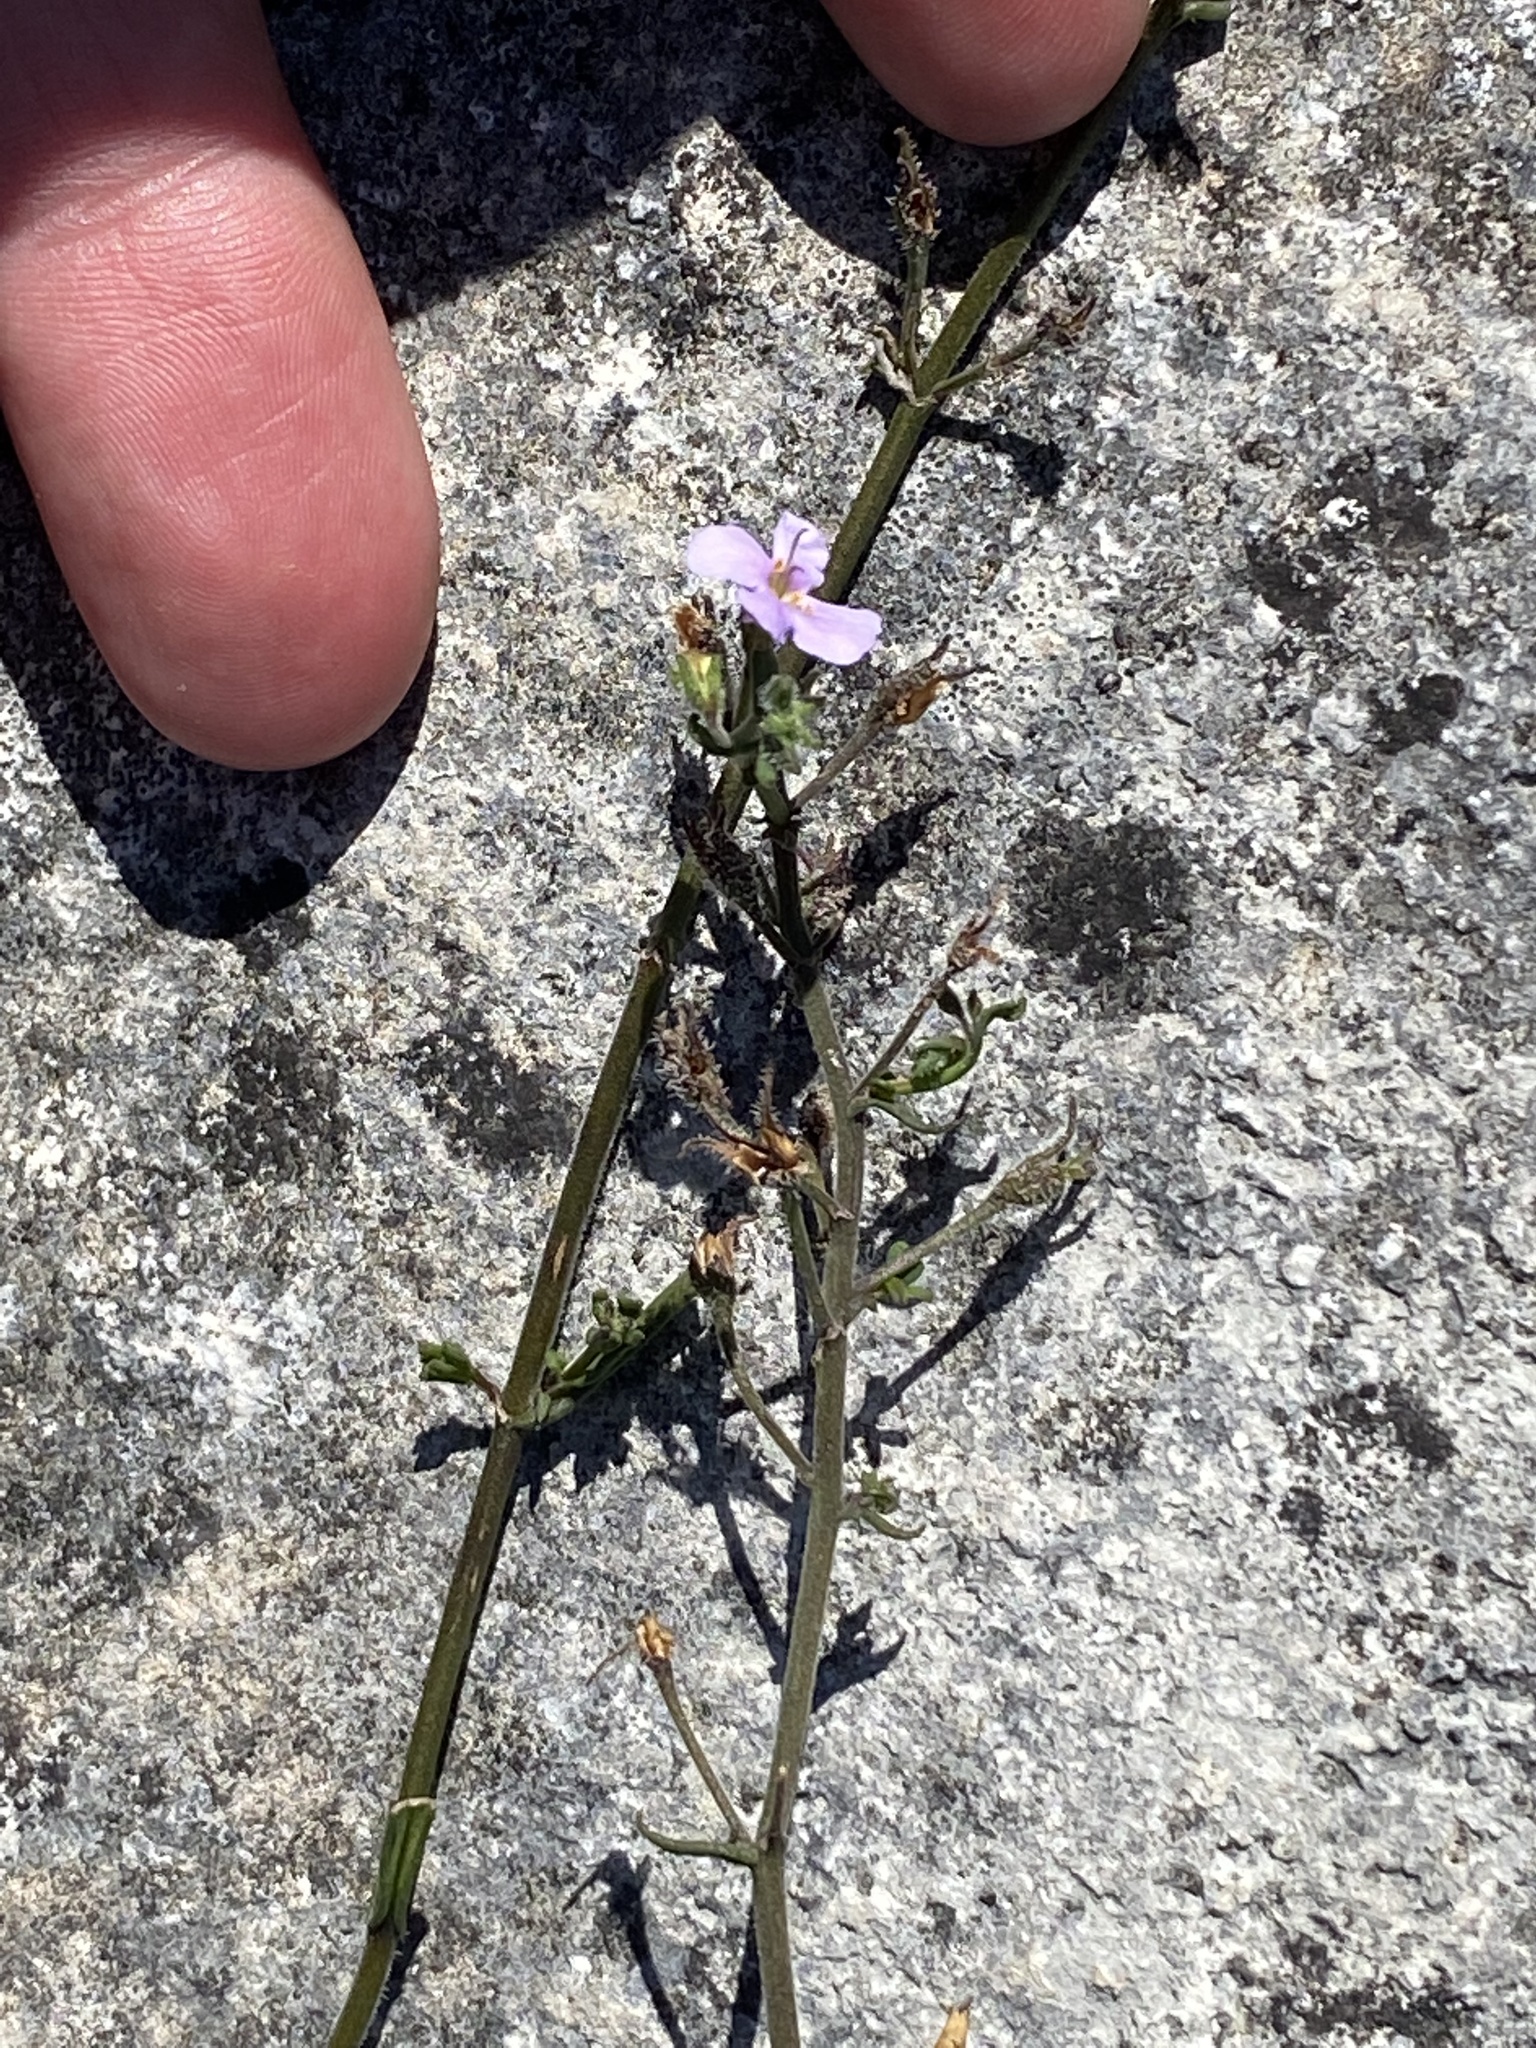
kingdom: Plantae
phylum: Tracheophyta
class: Magnoliopsida
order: Lamiales
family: Scrophulariaceae
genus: Chaenostoma
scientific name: Chaenostoma placidum
